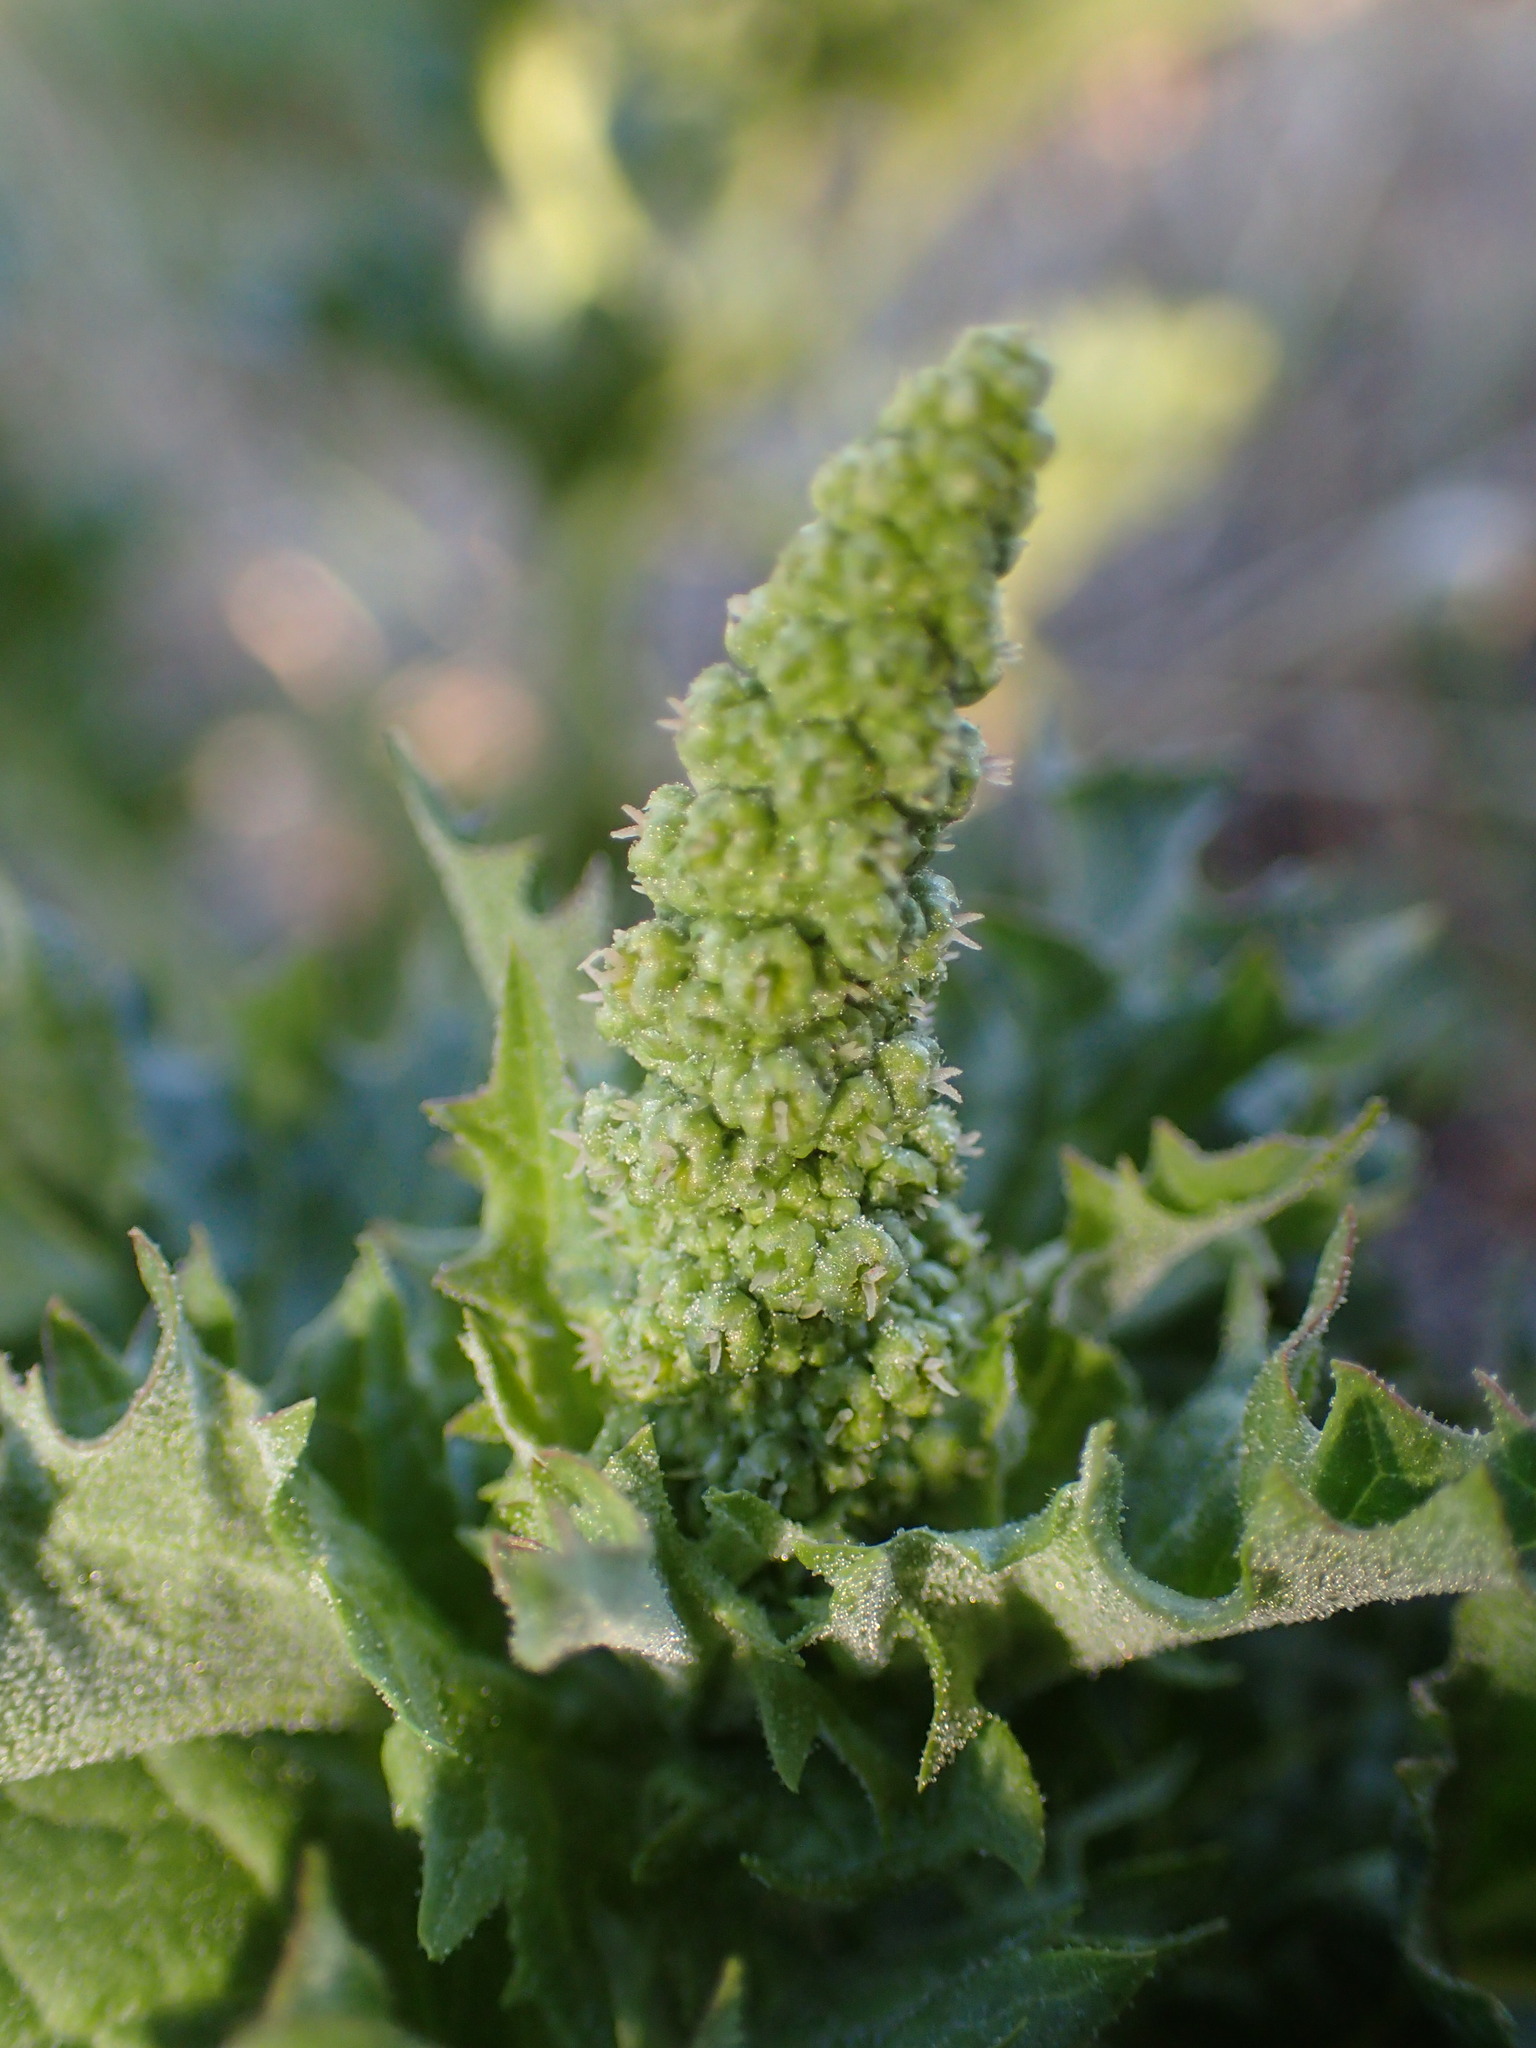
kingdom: Plantae
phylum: Tracheophyta
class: Magnoliopsida
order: Caryophyllales
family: Amaranthaceae
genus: Blitum
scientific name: Blitum californicum
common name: California goosefoot
